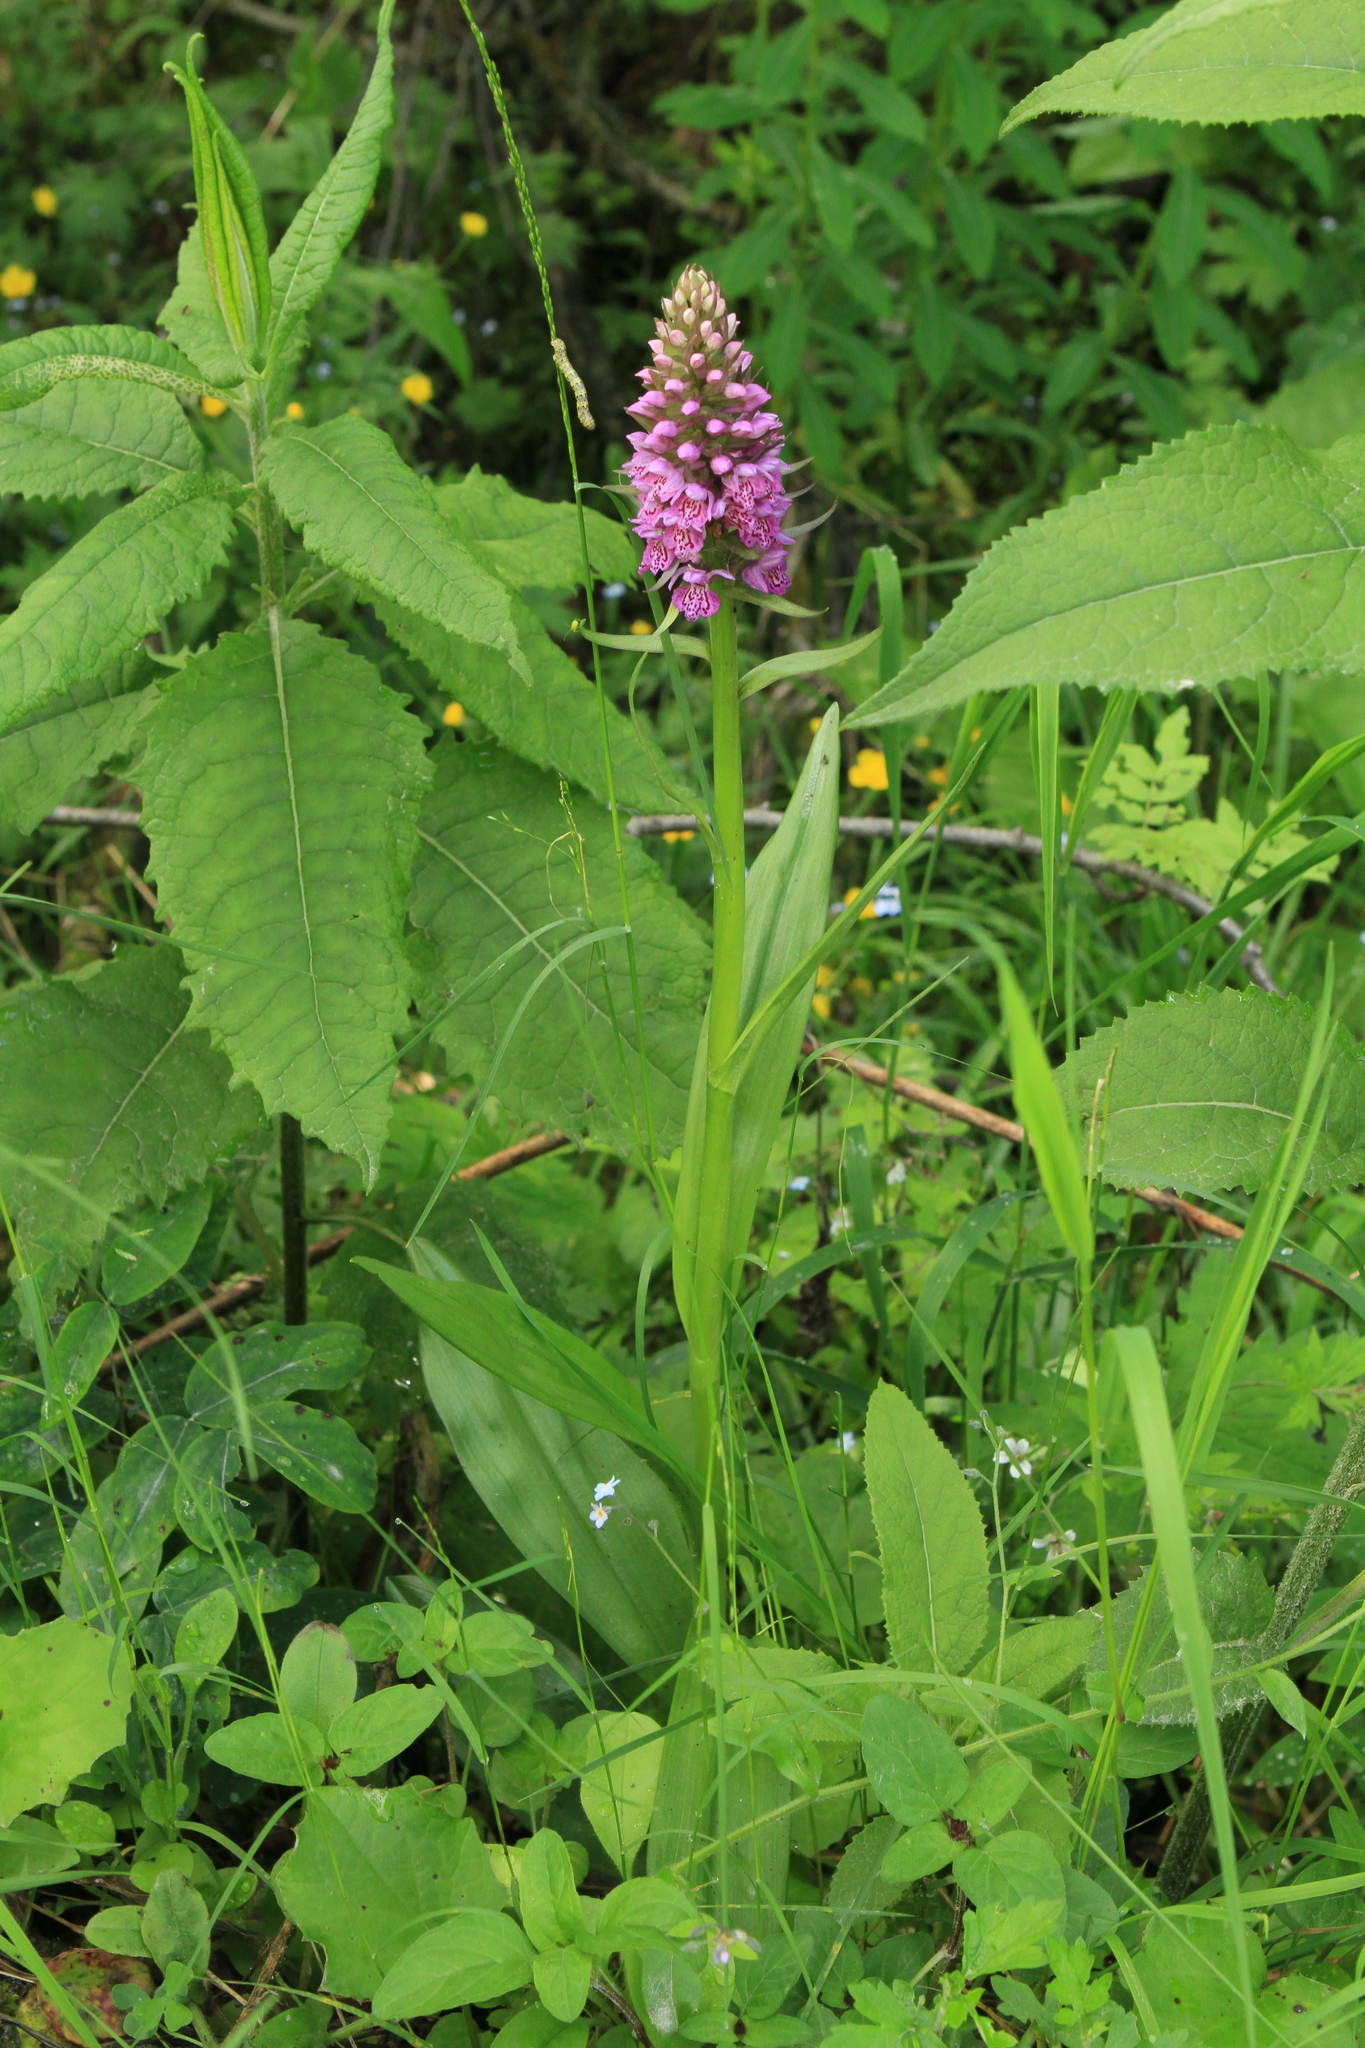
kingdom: Plantae
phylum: Tracheophyta
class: Liliopsida
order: Asparagales
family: Orchidaceae
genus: Dactylorhiza
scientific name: Dactylorhiza sibirica
